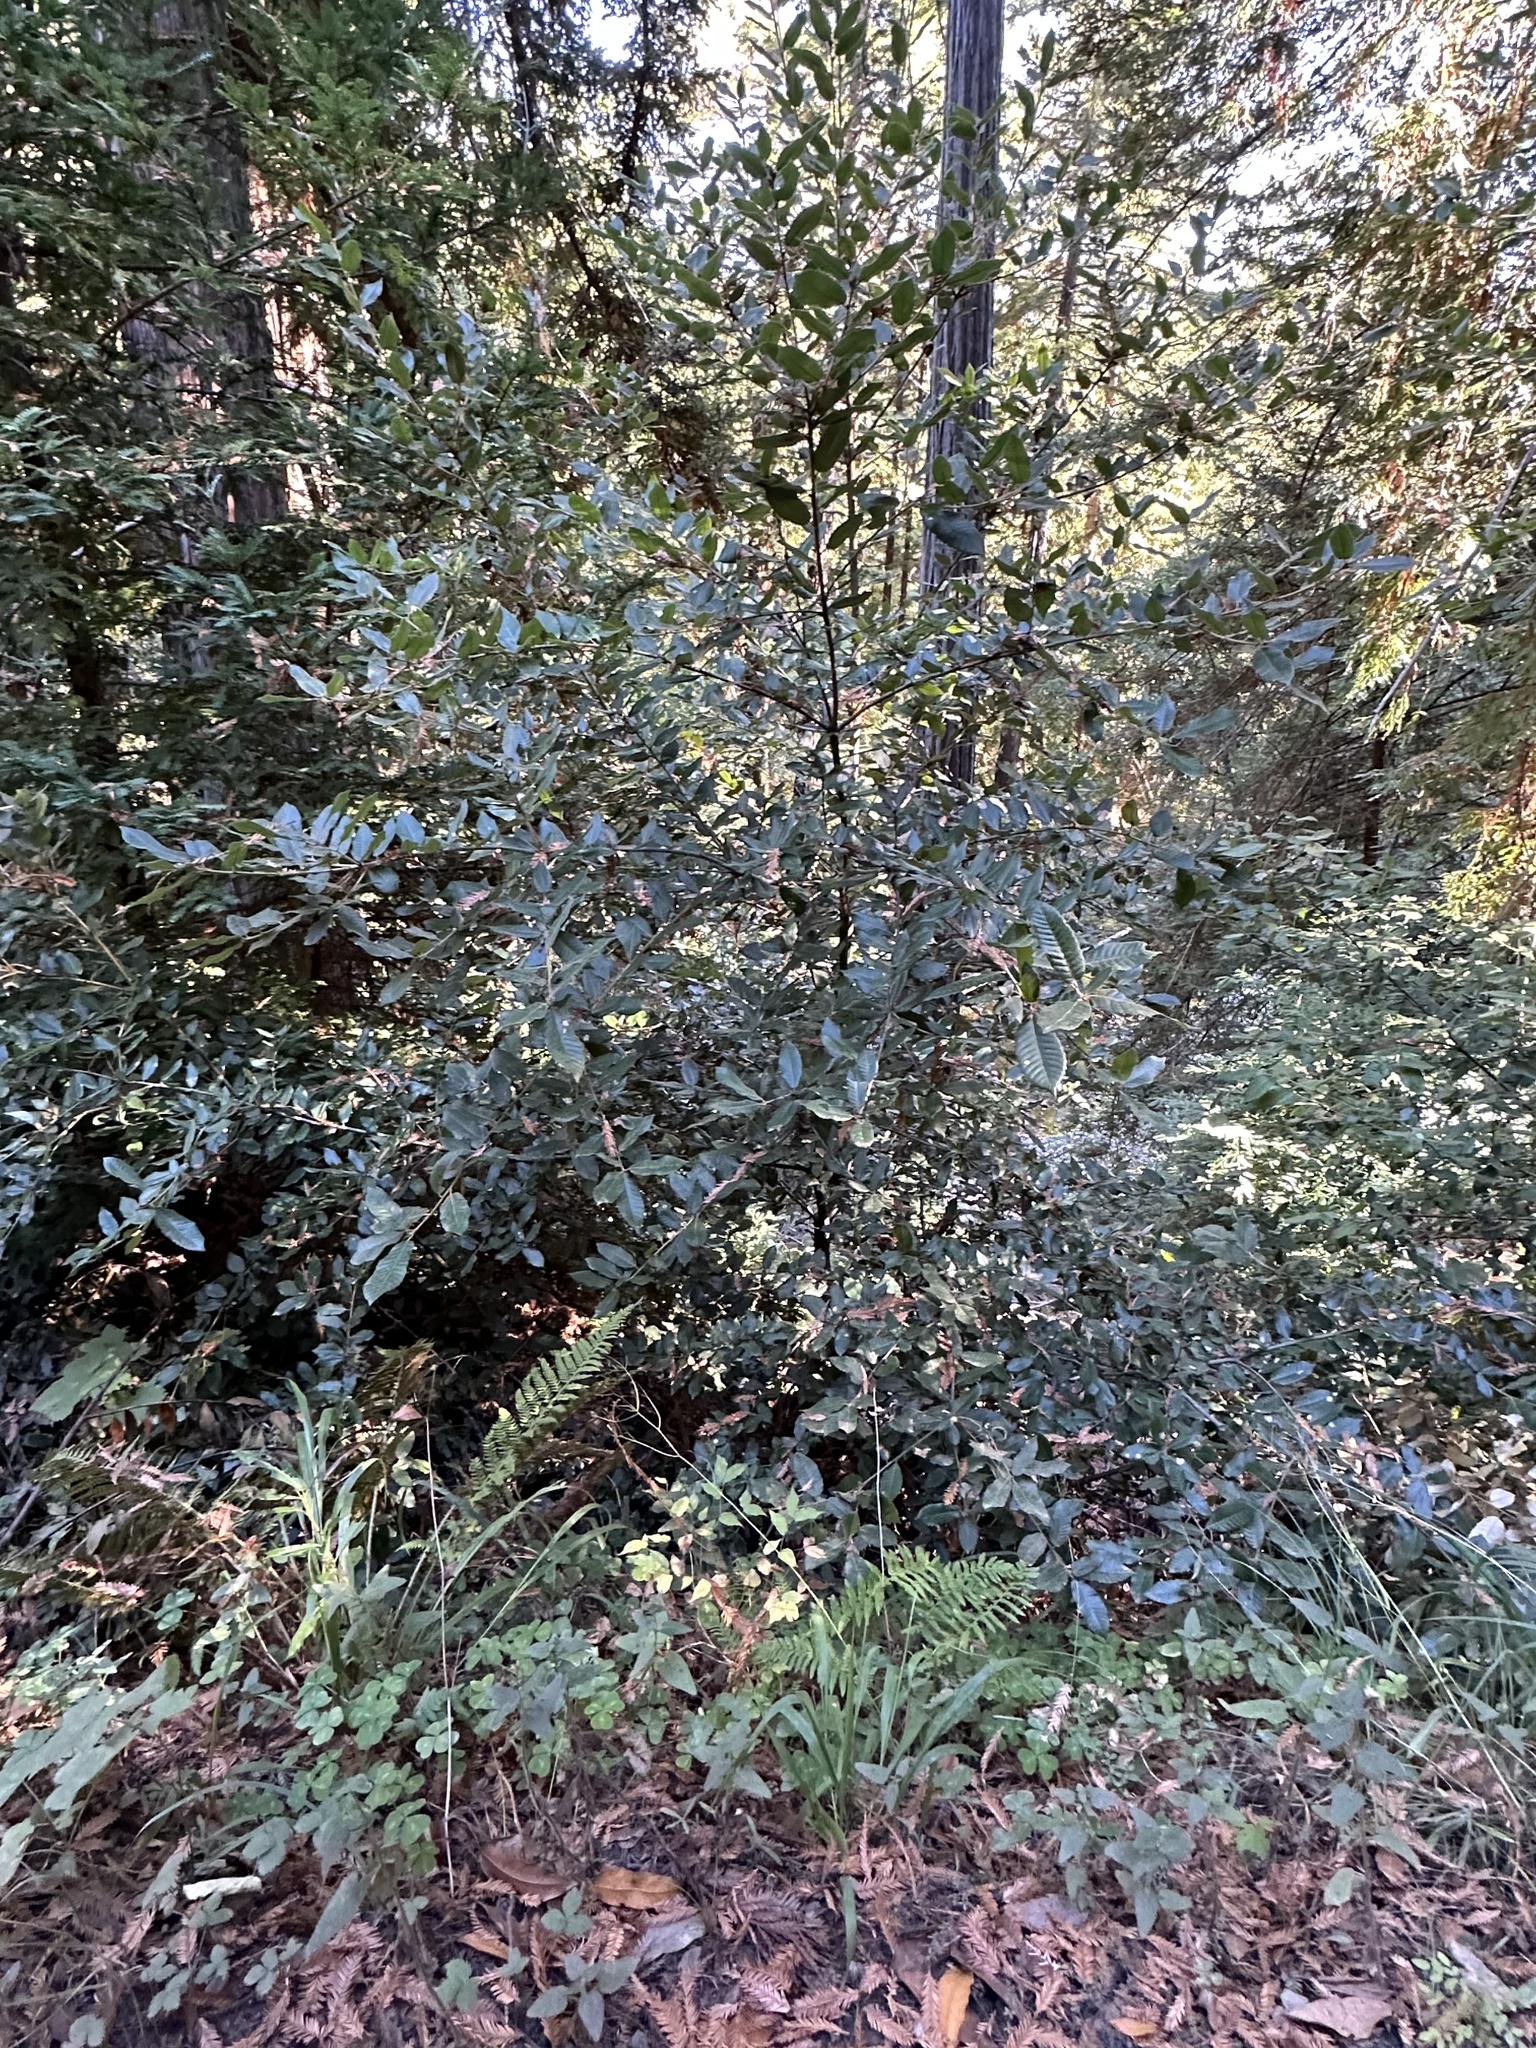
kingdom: Plantae
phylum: Tracheophyta
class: Magnoliopsida
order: Fagales
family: Fagaceae
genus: Notholithocarpus
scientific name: Notholithocarpus densiflorus
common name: Tan bark oak
